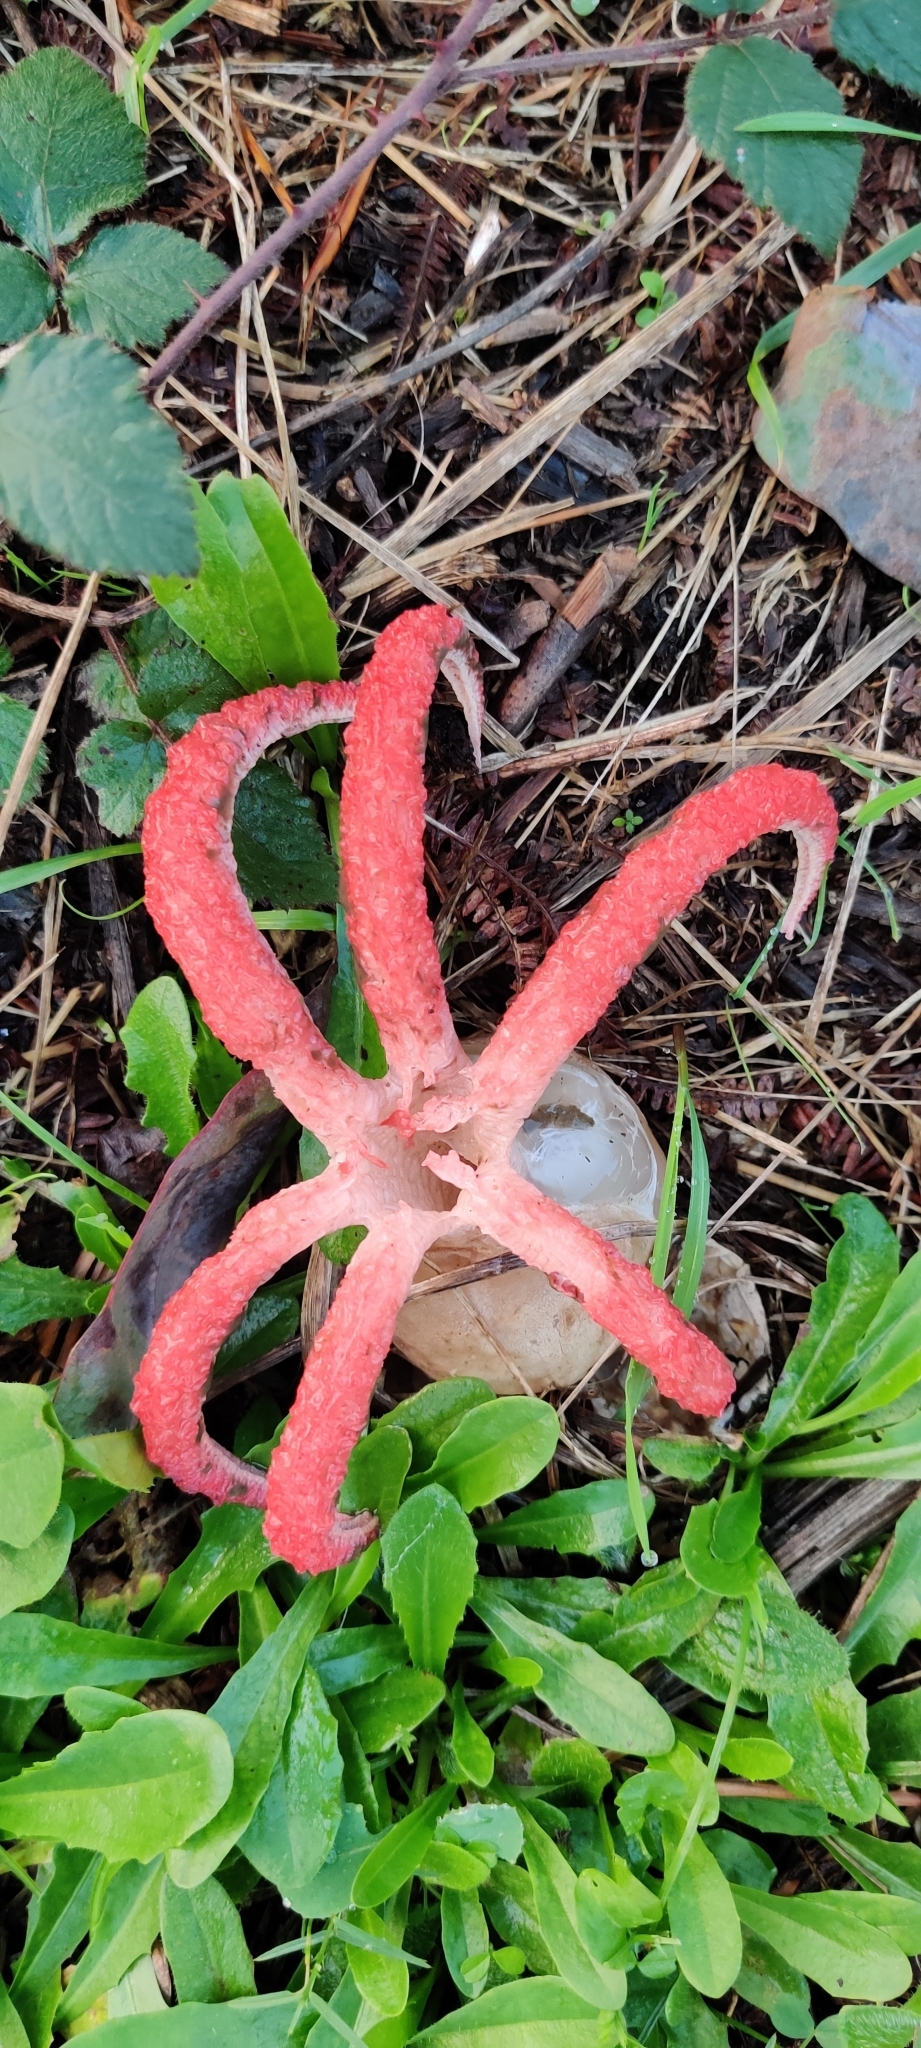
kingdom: Fungi
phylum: Basidiomycota
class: Agaricomycetes
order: Phallales
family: Phallaceae
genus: Clathrus
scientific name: Clathrus archeri
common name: Devil's fingers
